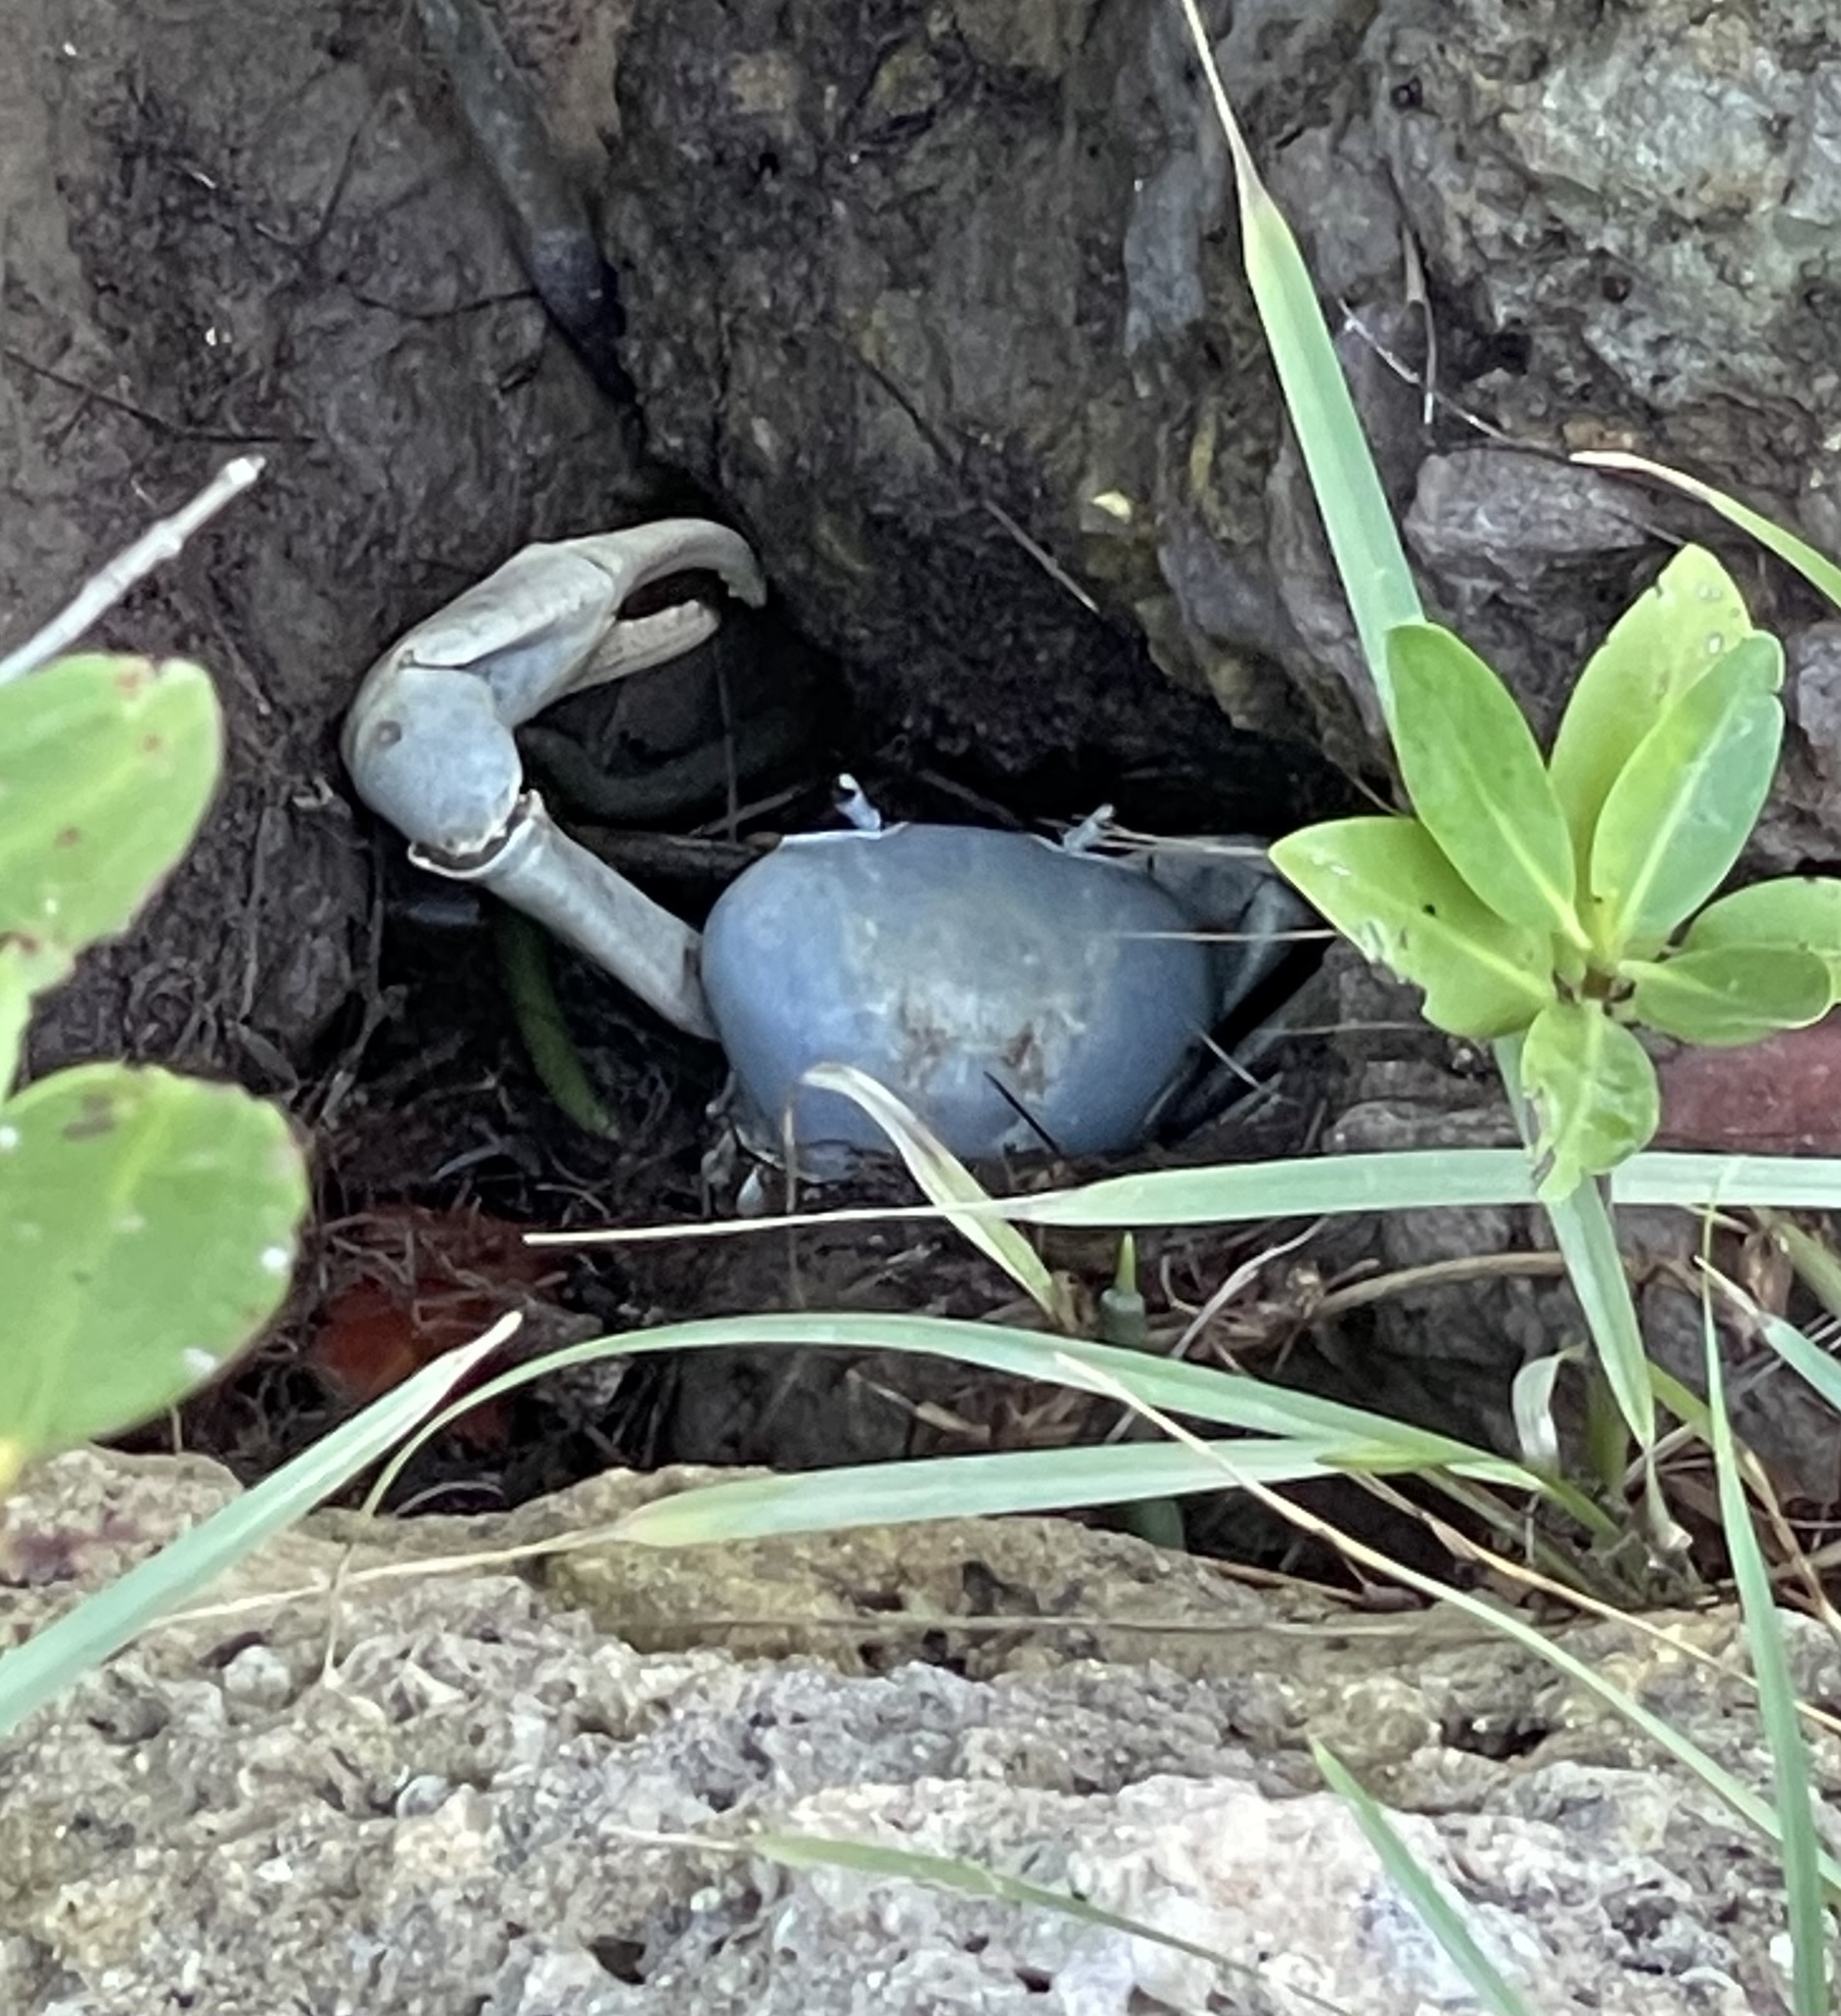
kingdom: Animalia
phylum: Arthropoda
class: Malacostraca
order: Decapoda
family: Gecarcinidae
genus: Cardisoma
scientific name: Cardisoma guanhumi
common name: Great land crab
